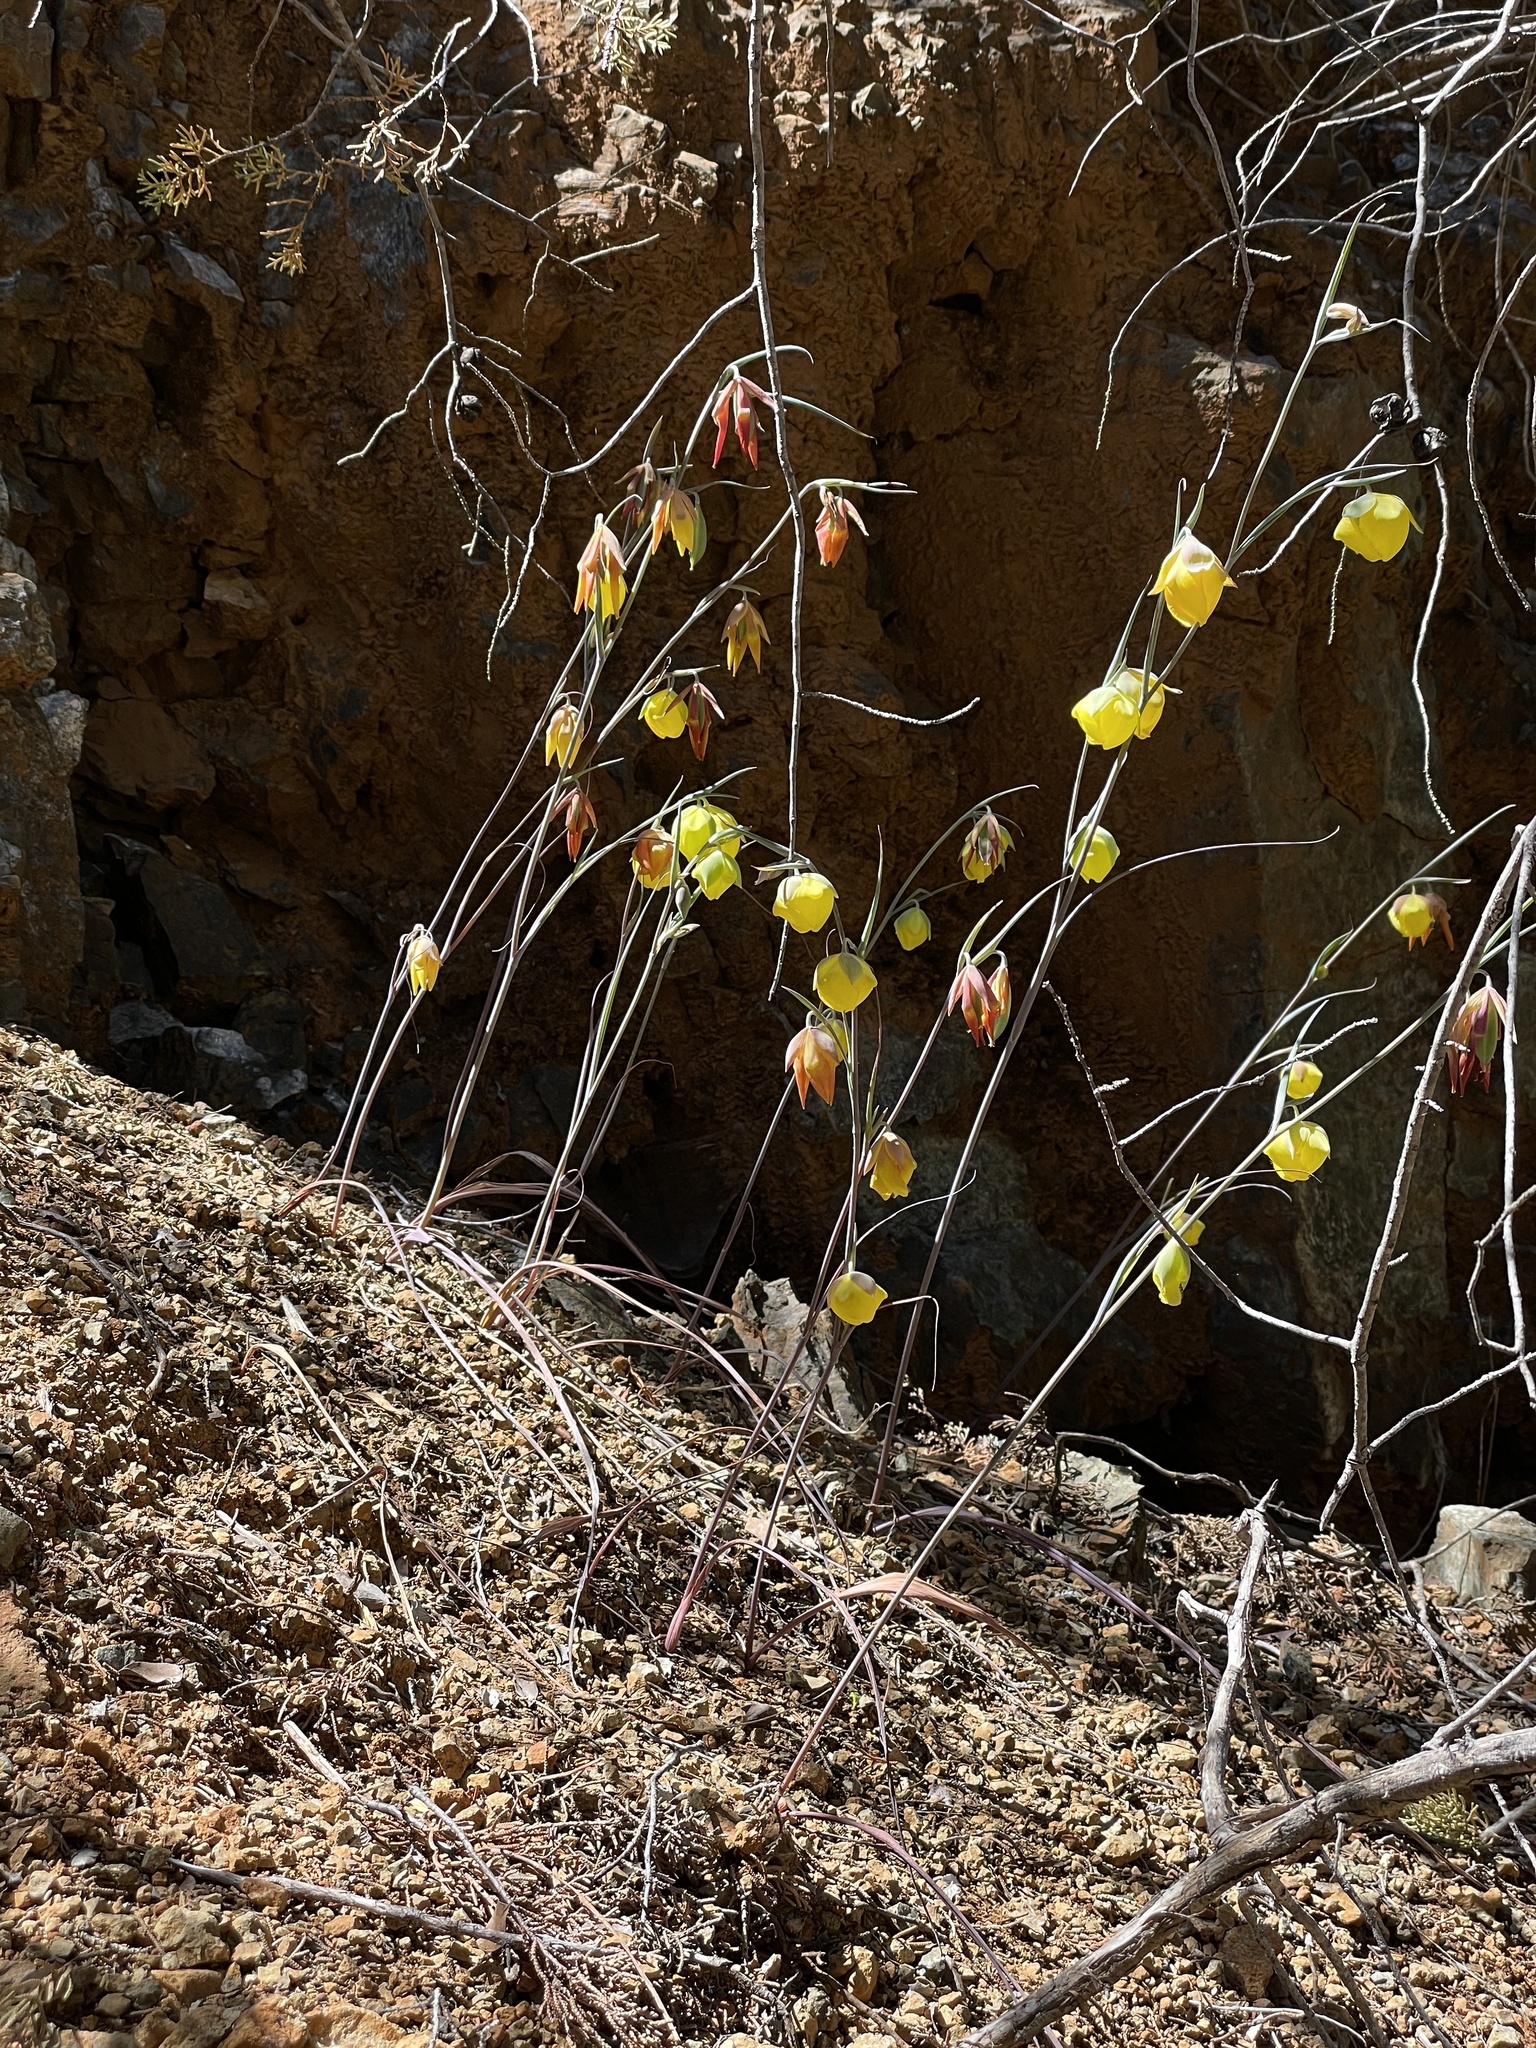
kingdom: Plantae
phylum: Tracheophyta
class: Liliopsida
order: Liliales
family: Liliaceae
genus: Calochortus
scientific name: Calochortus raichei
